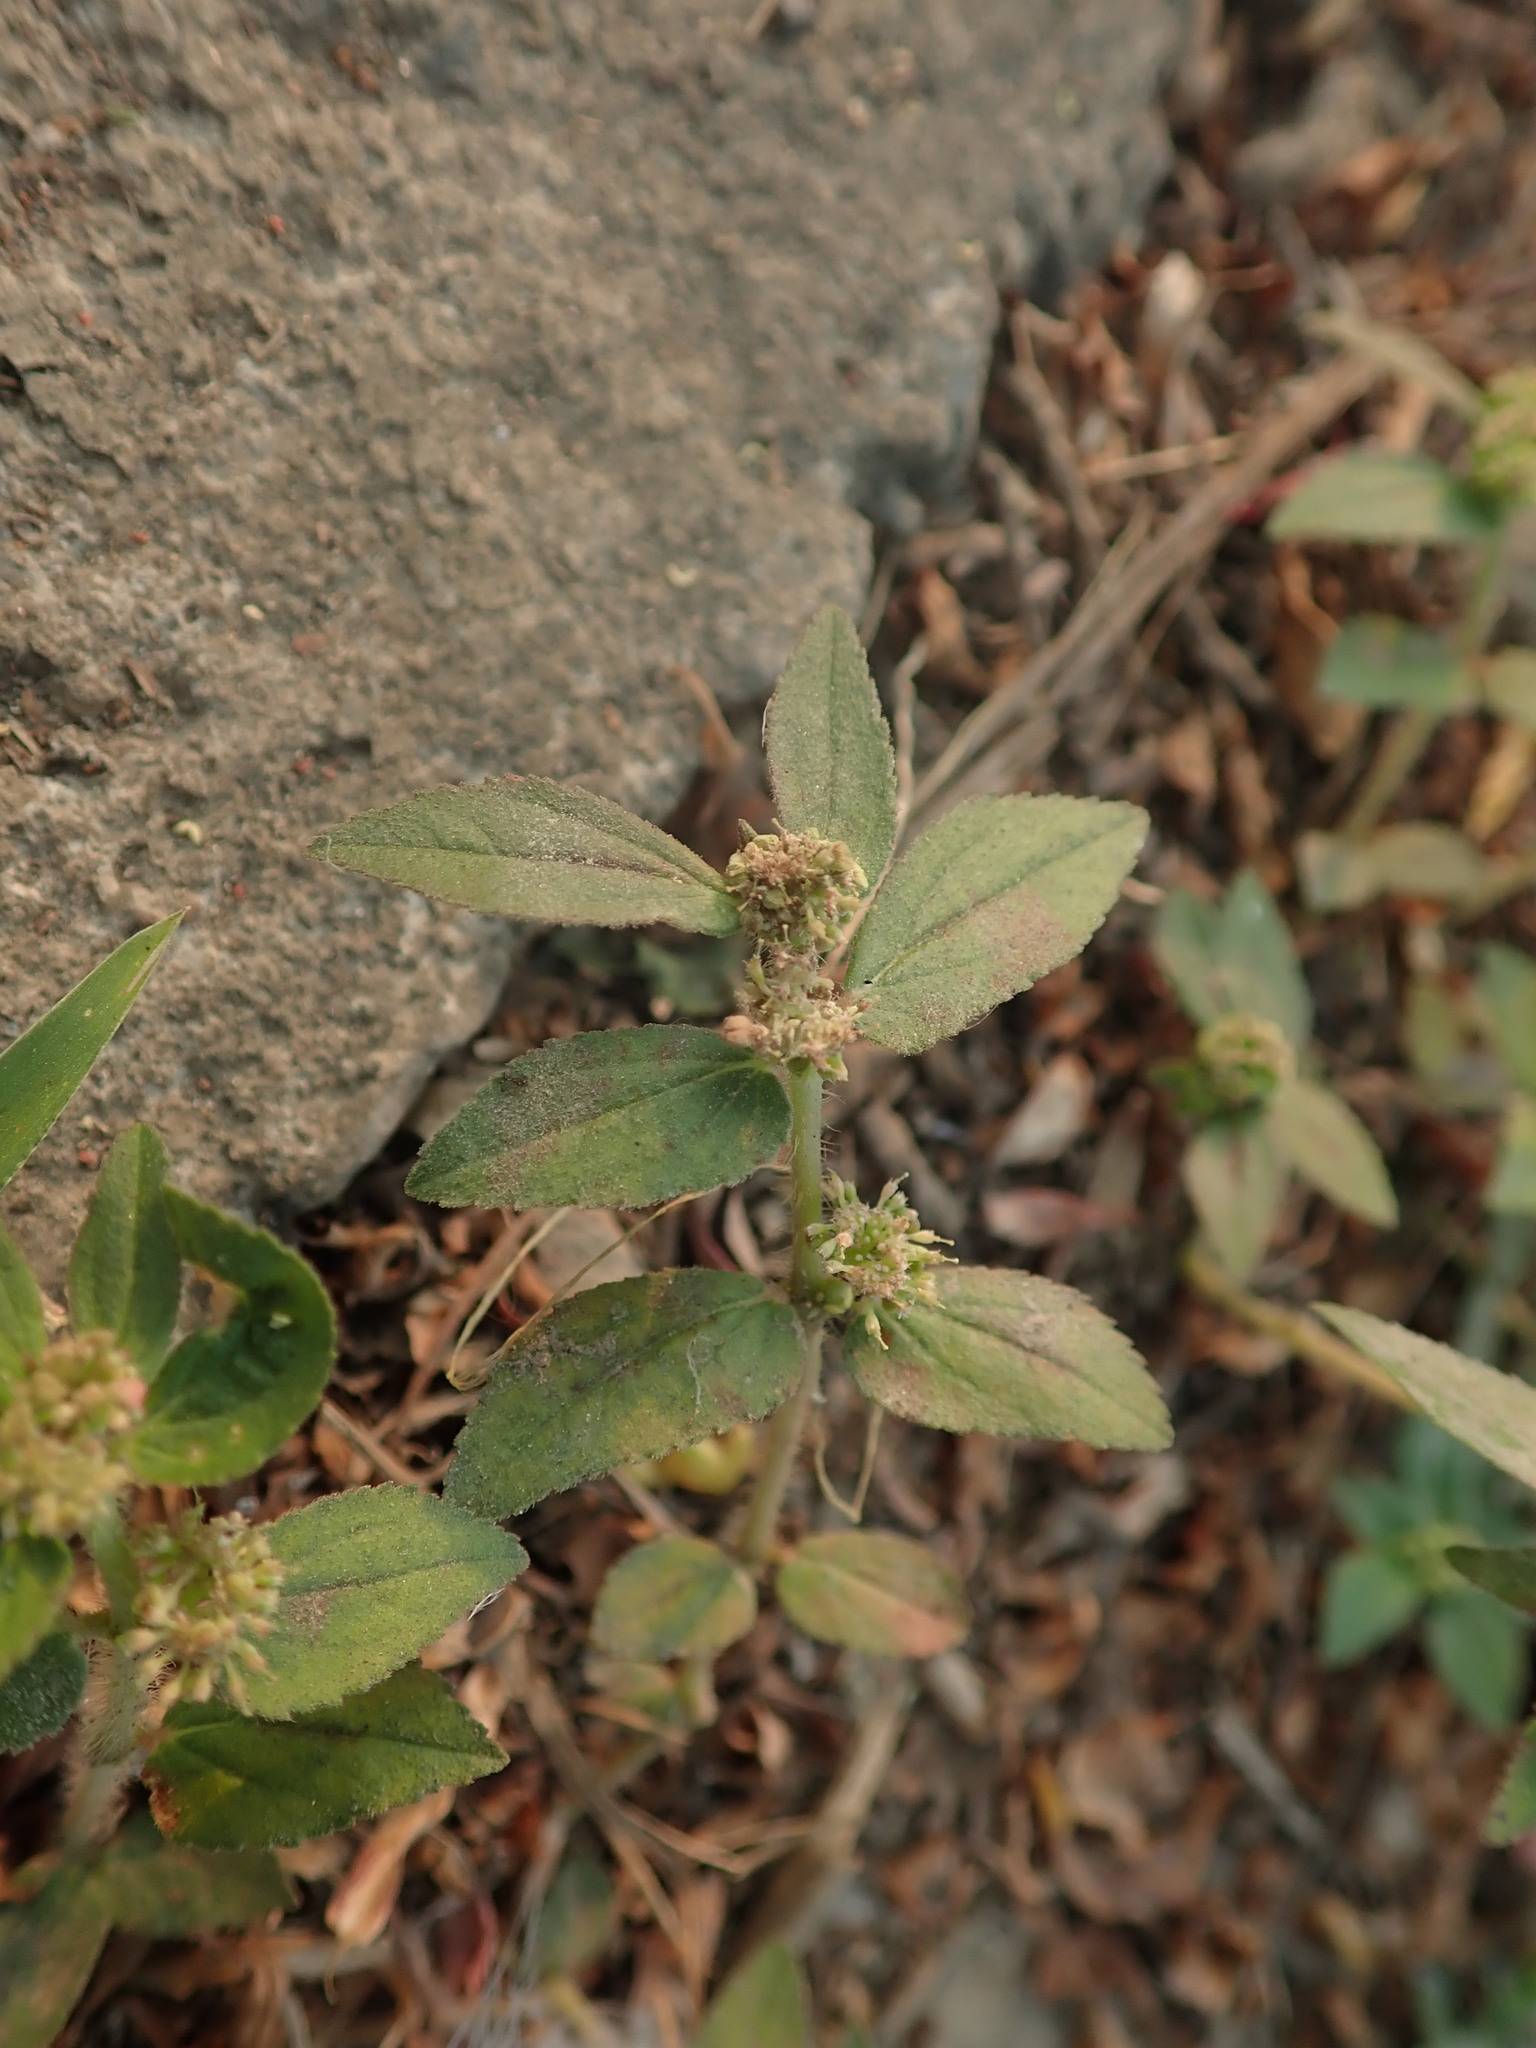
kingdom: Plantae
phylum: Tracheophyta
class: Magnoliopsida
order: Malpighiales
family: Euphorbiaceae
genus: Euphorbia
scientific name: Euphorbia hirta
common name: Pillpod sandmat
